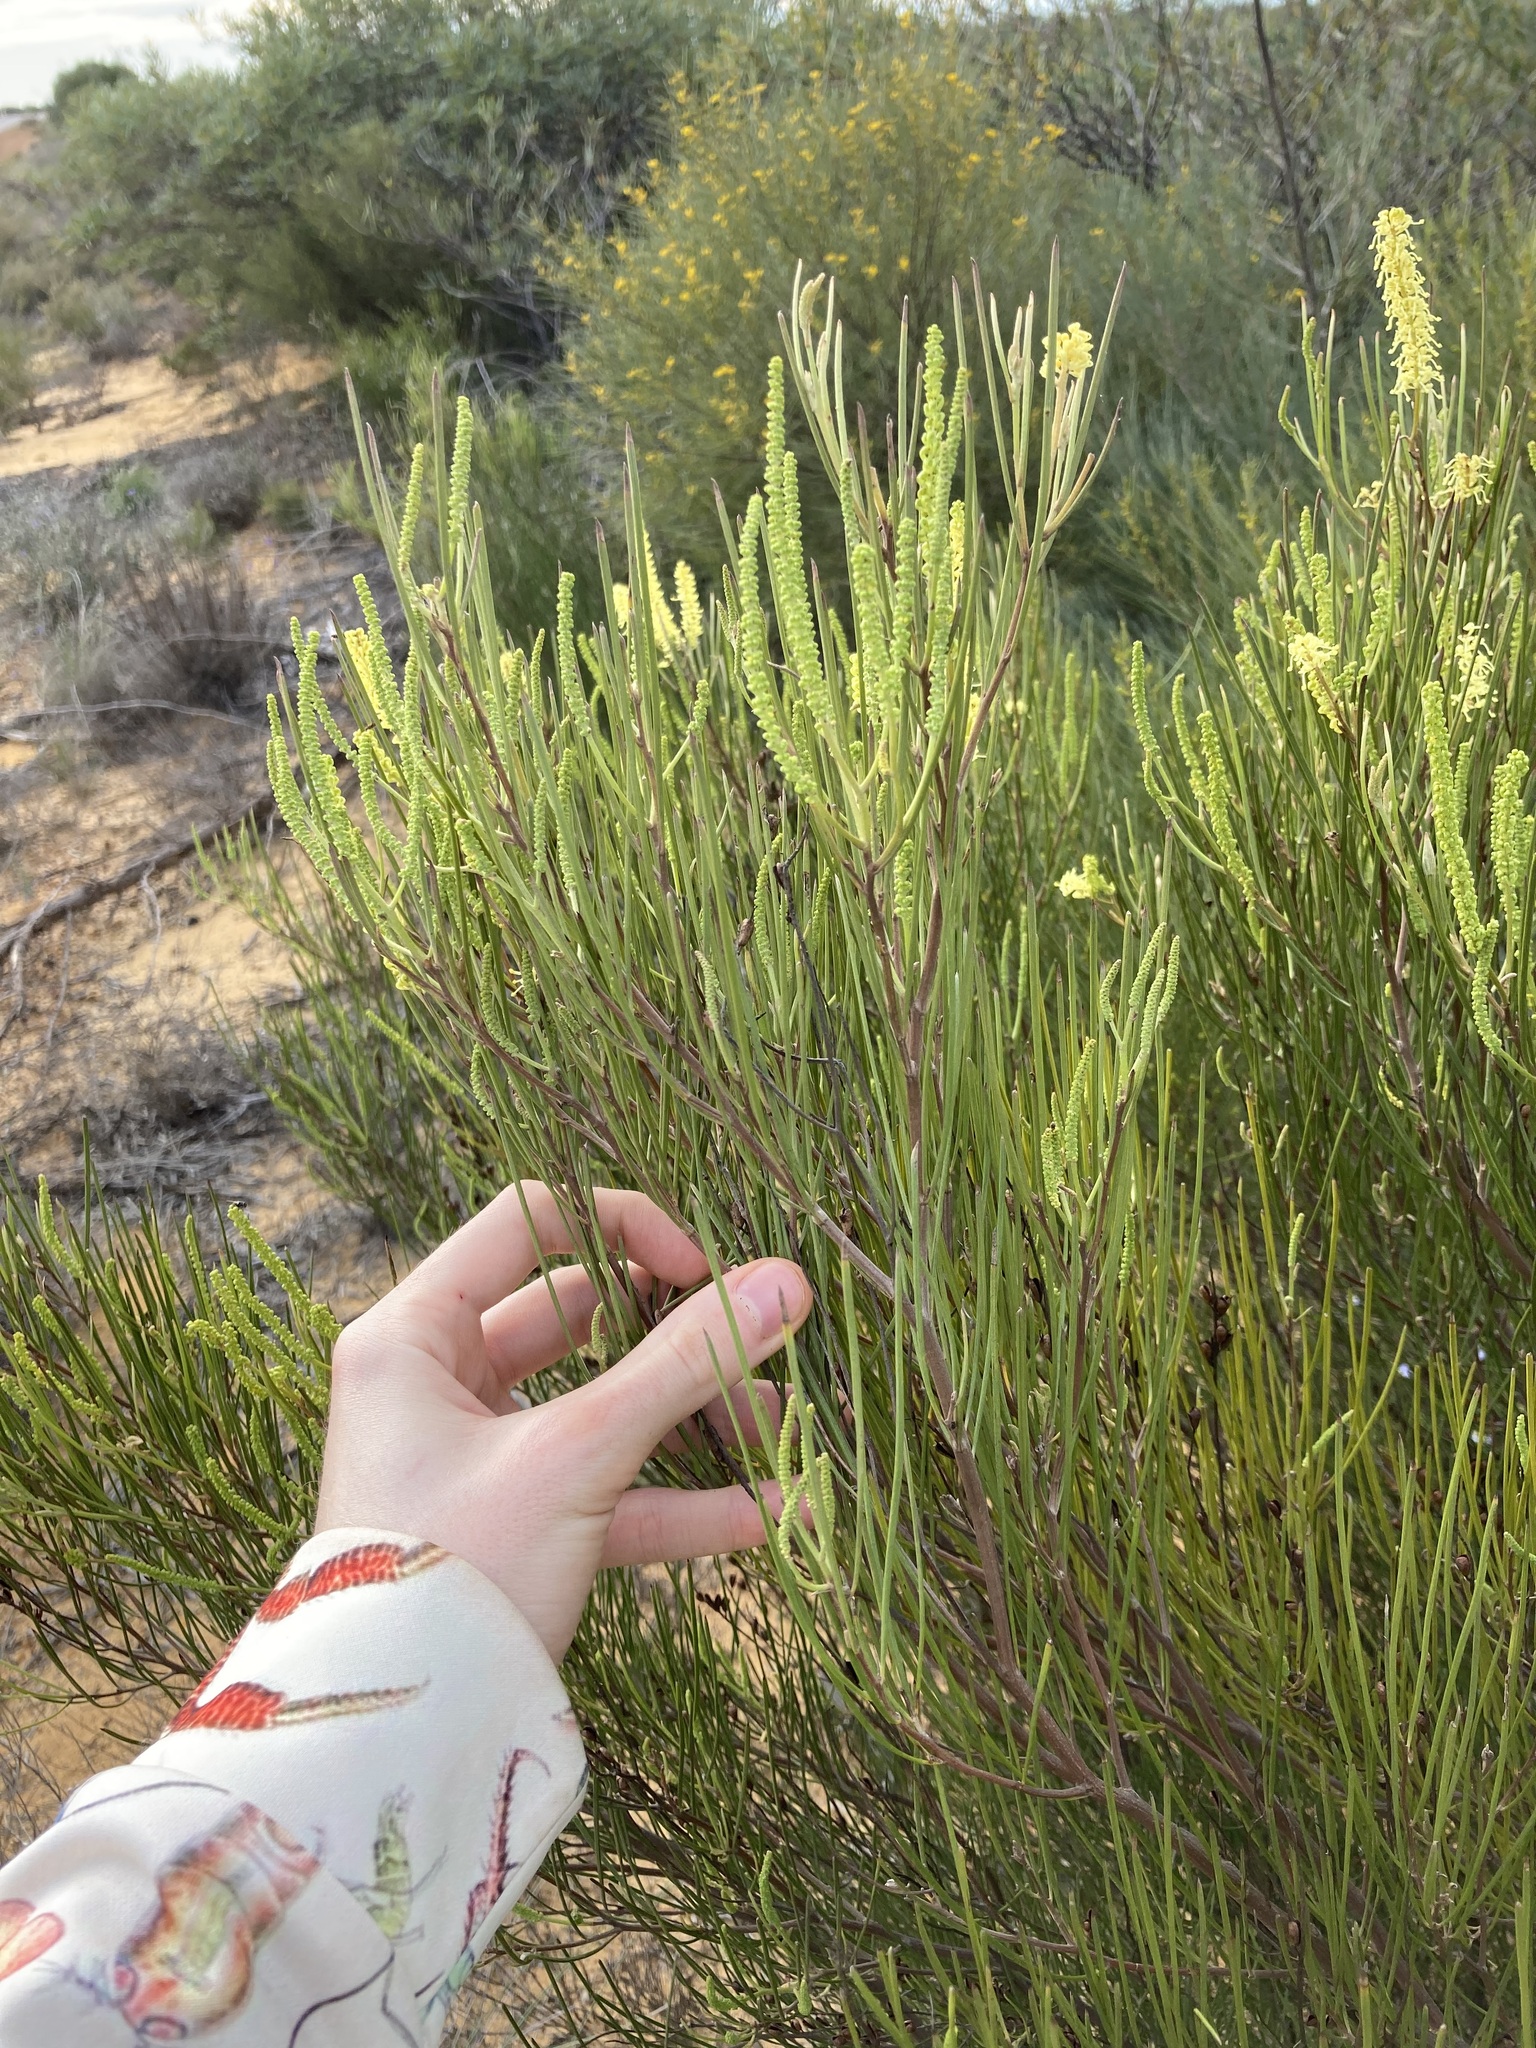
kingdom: Plantae
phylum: Tracheophyta
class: Magnoliopsida
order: Proteales
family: Proteaceae
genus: Grevillea
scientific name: Grevillea didymobotrya
